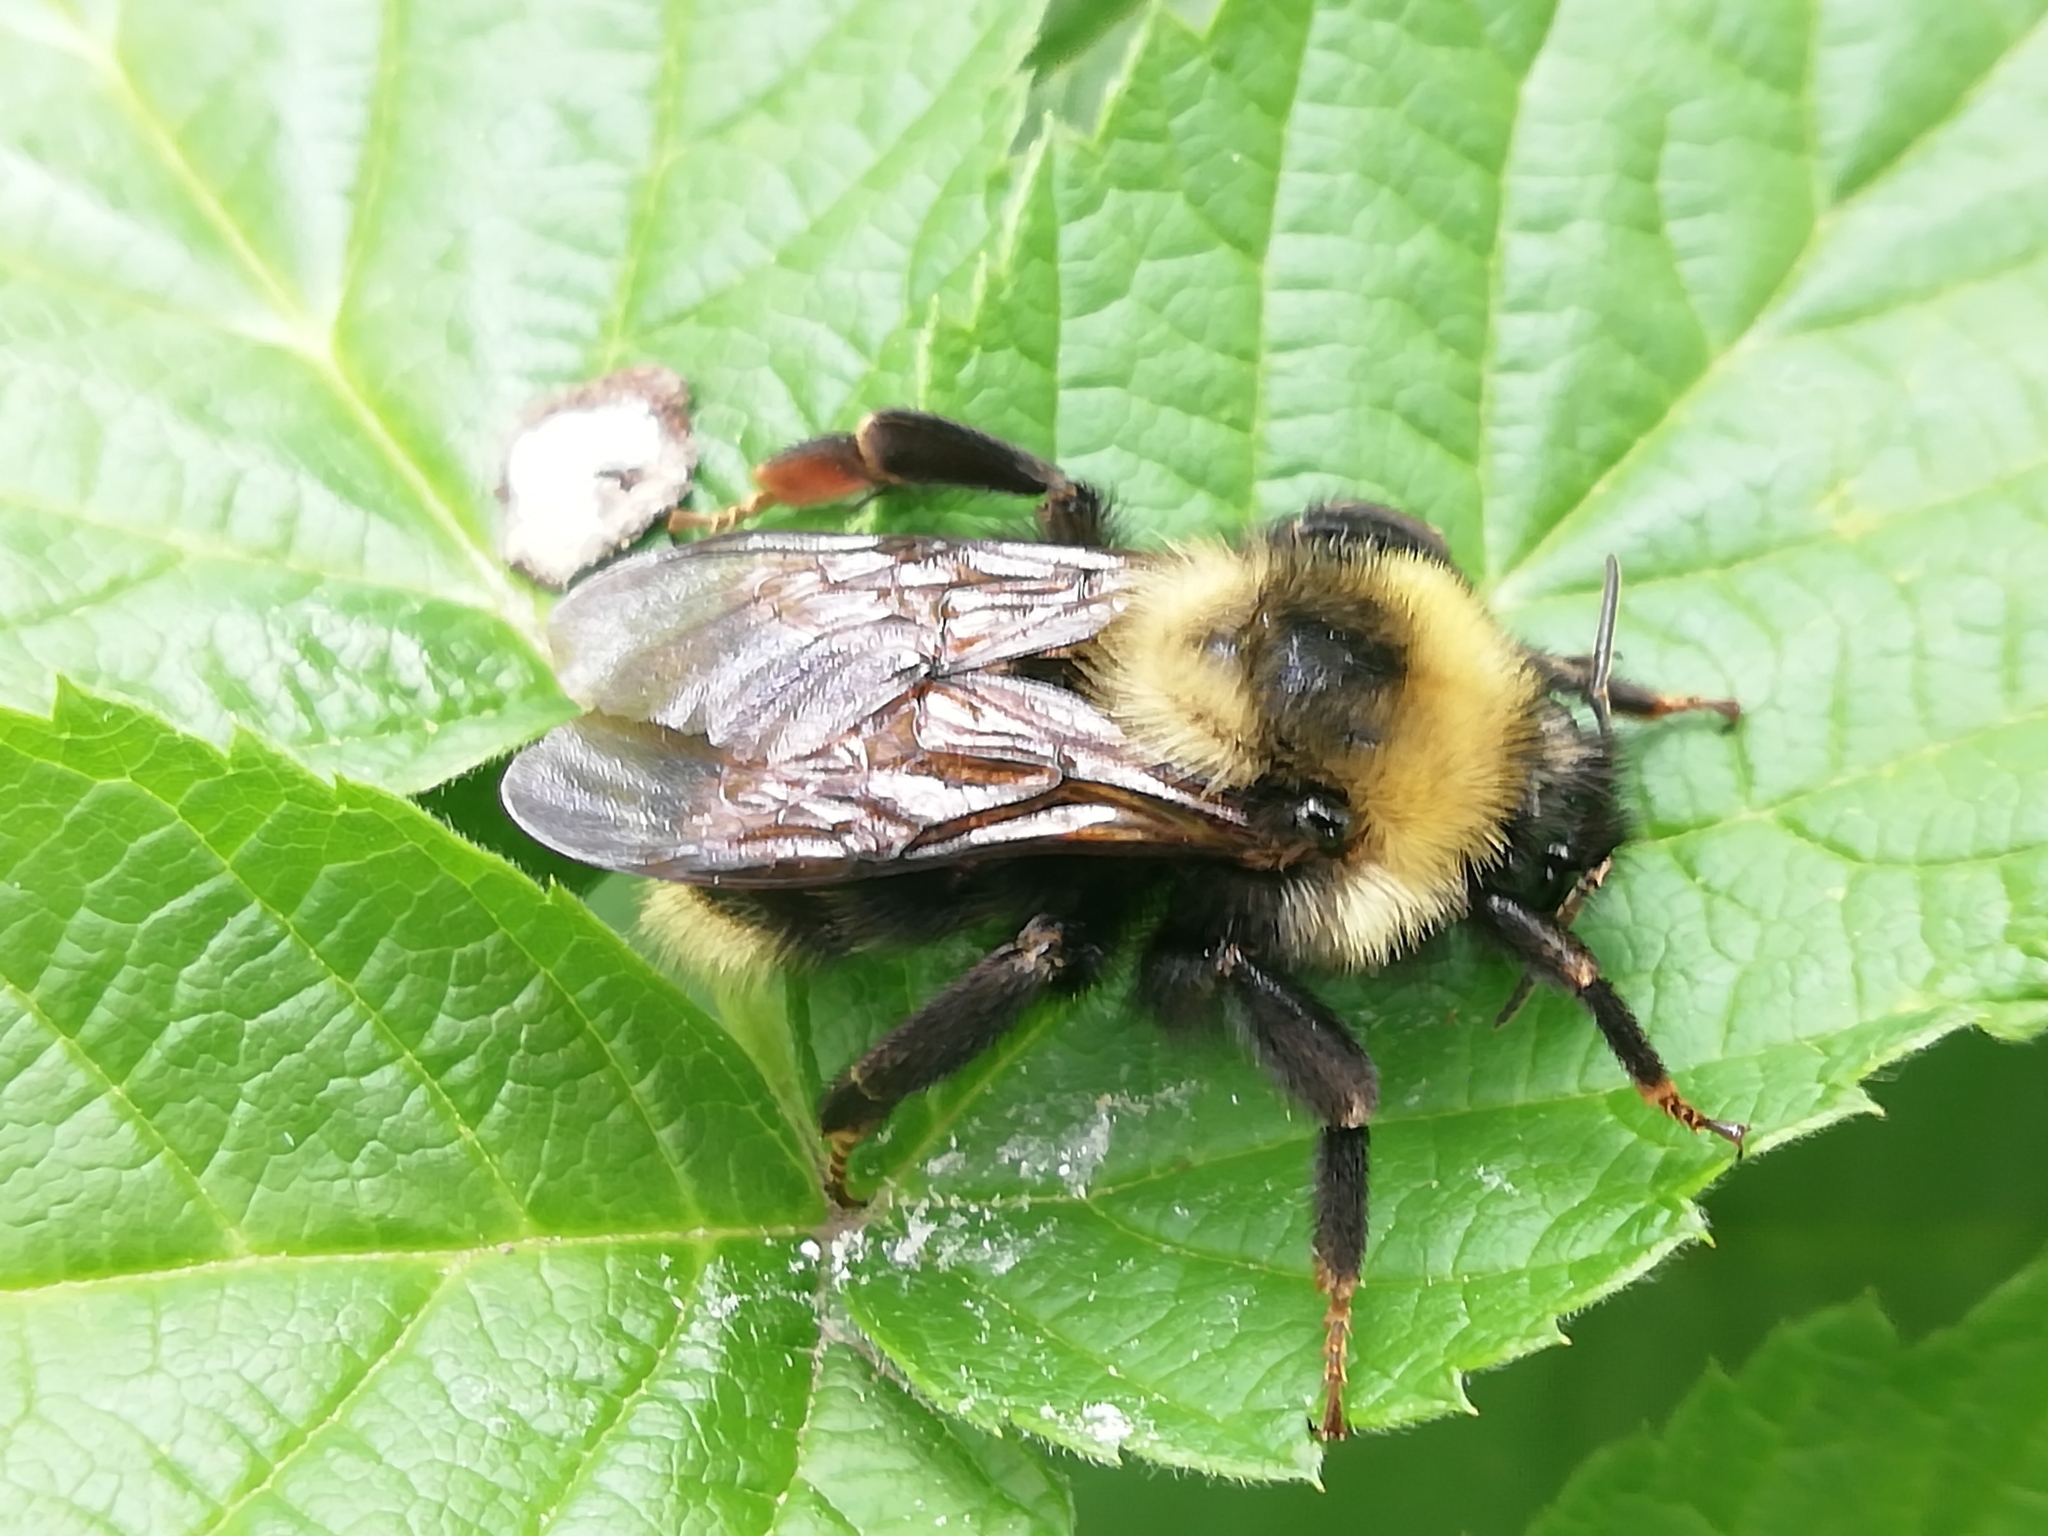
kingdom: Animalia
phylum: Arthropoda
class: Insecta
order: Hymenoptera
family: Apidae
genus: Bombus
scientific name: Bombus campestris
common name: Field cuckoo-bee
